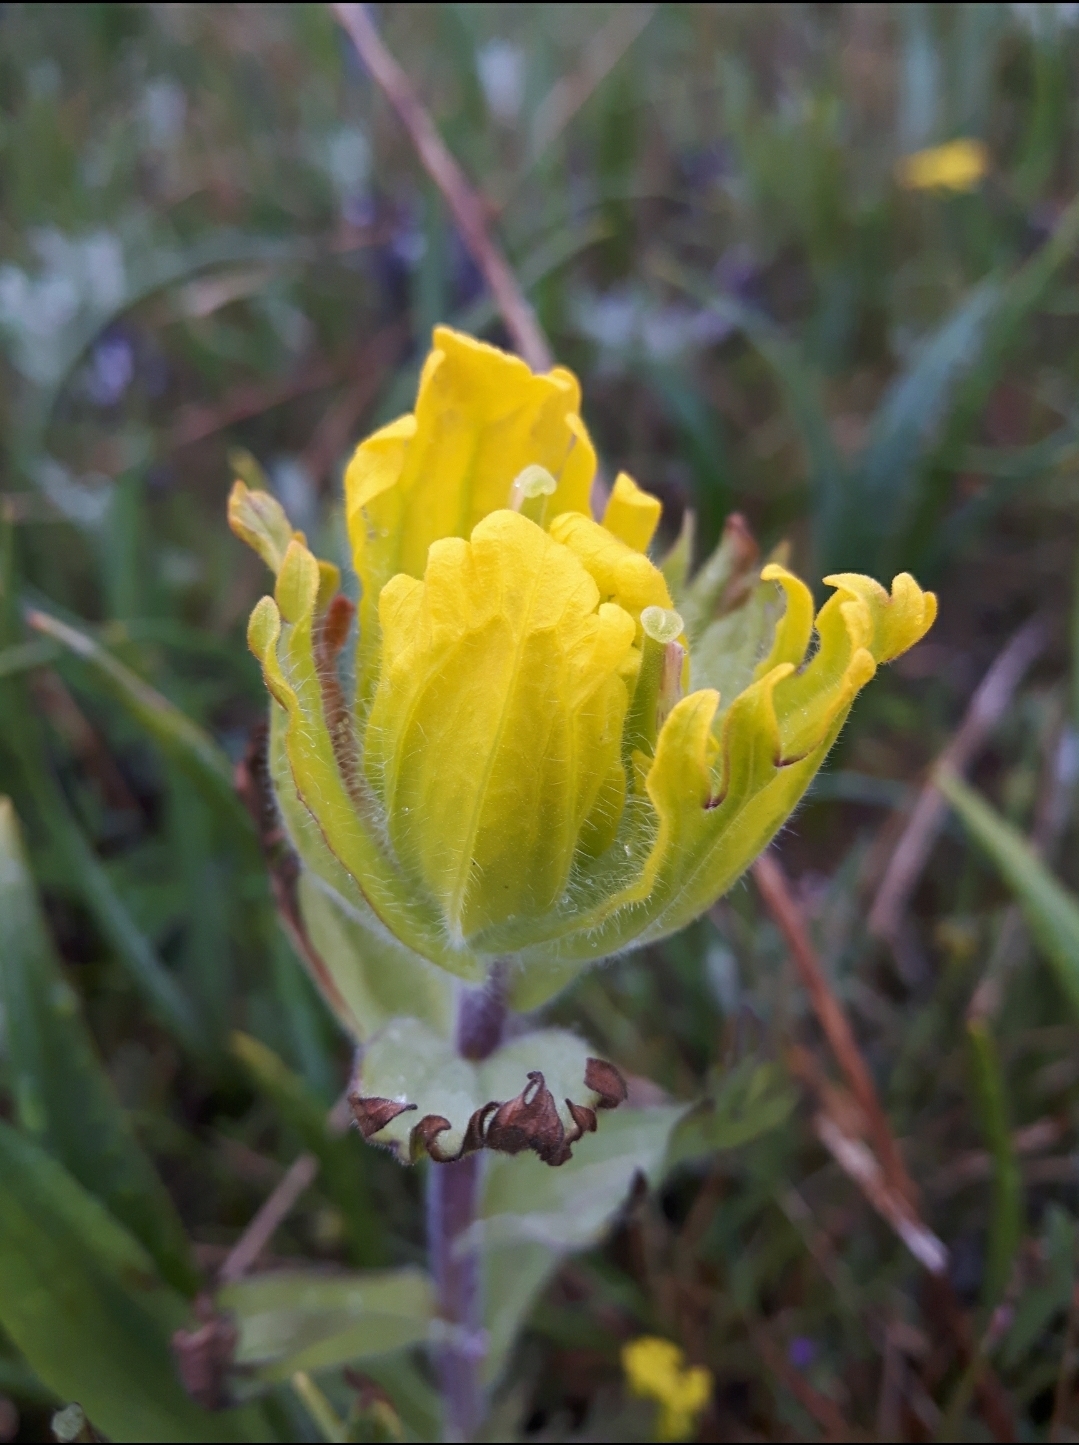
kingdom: Plantae
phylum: Tracheophyta
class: Magnoliopsida
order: Lamiales
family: Orobanchaceae
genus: Castilleja
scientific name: Castilleja levisecta
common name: Golden paintbrush
